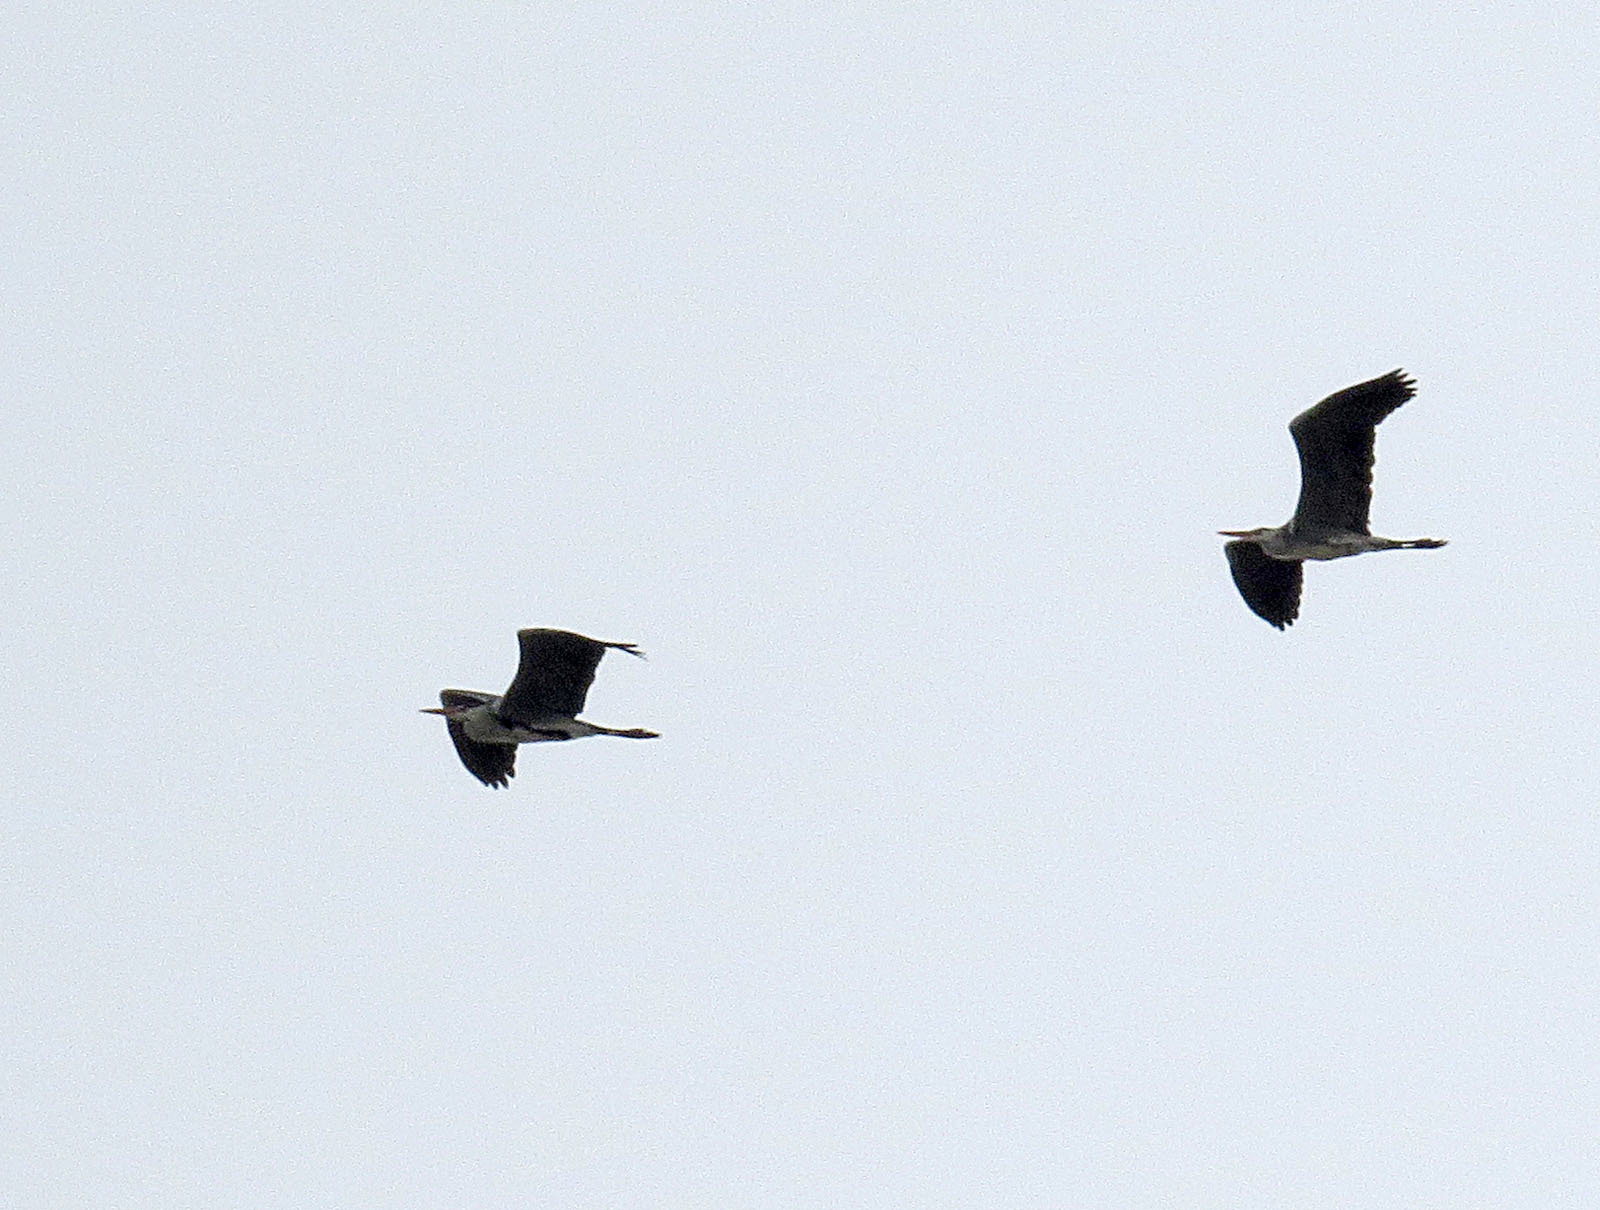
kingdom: Animalia
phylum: Chordata
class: Aves
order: Pelecaniformes
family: Ardeidae
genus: Ardea
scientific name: Ardea cinerea
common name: Grey heron
